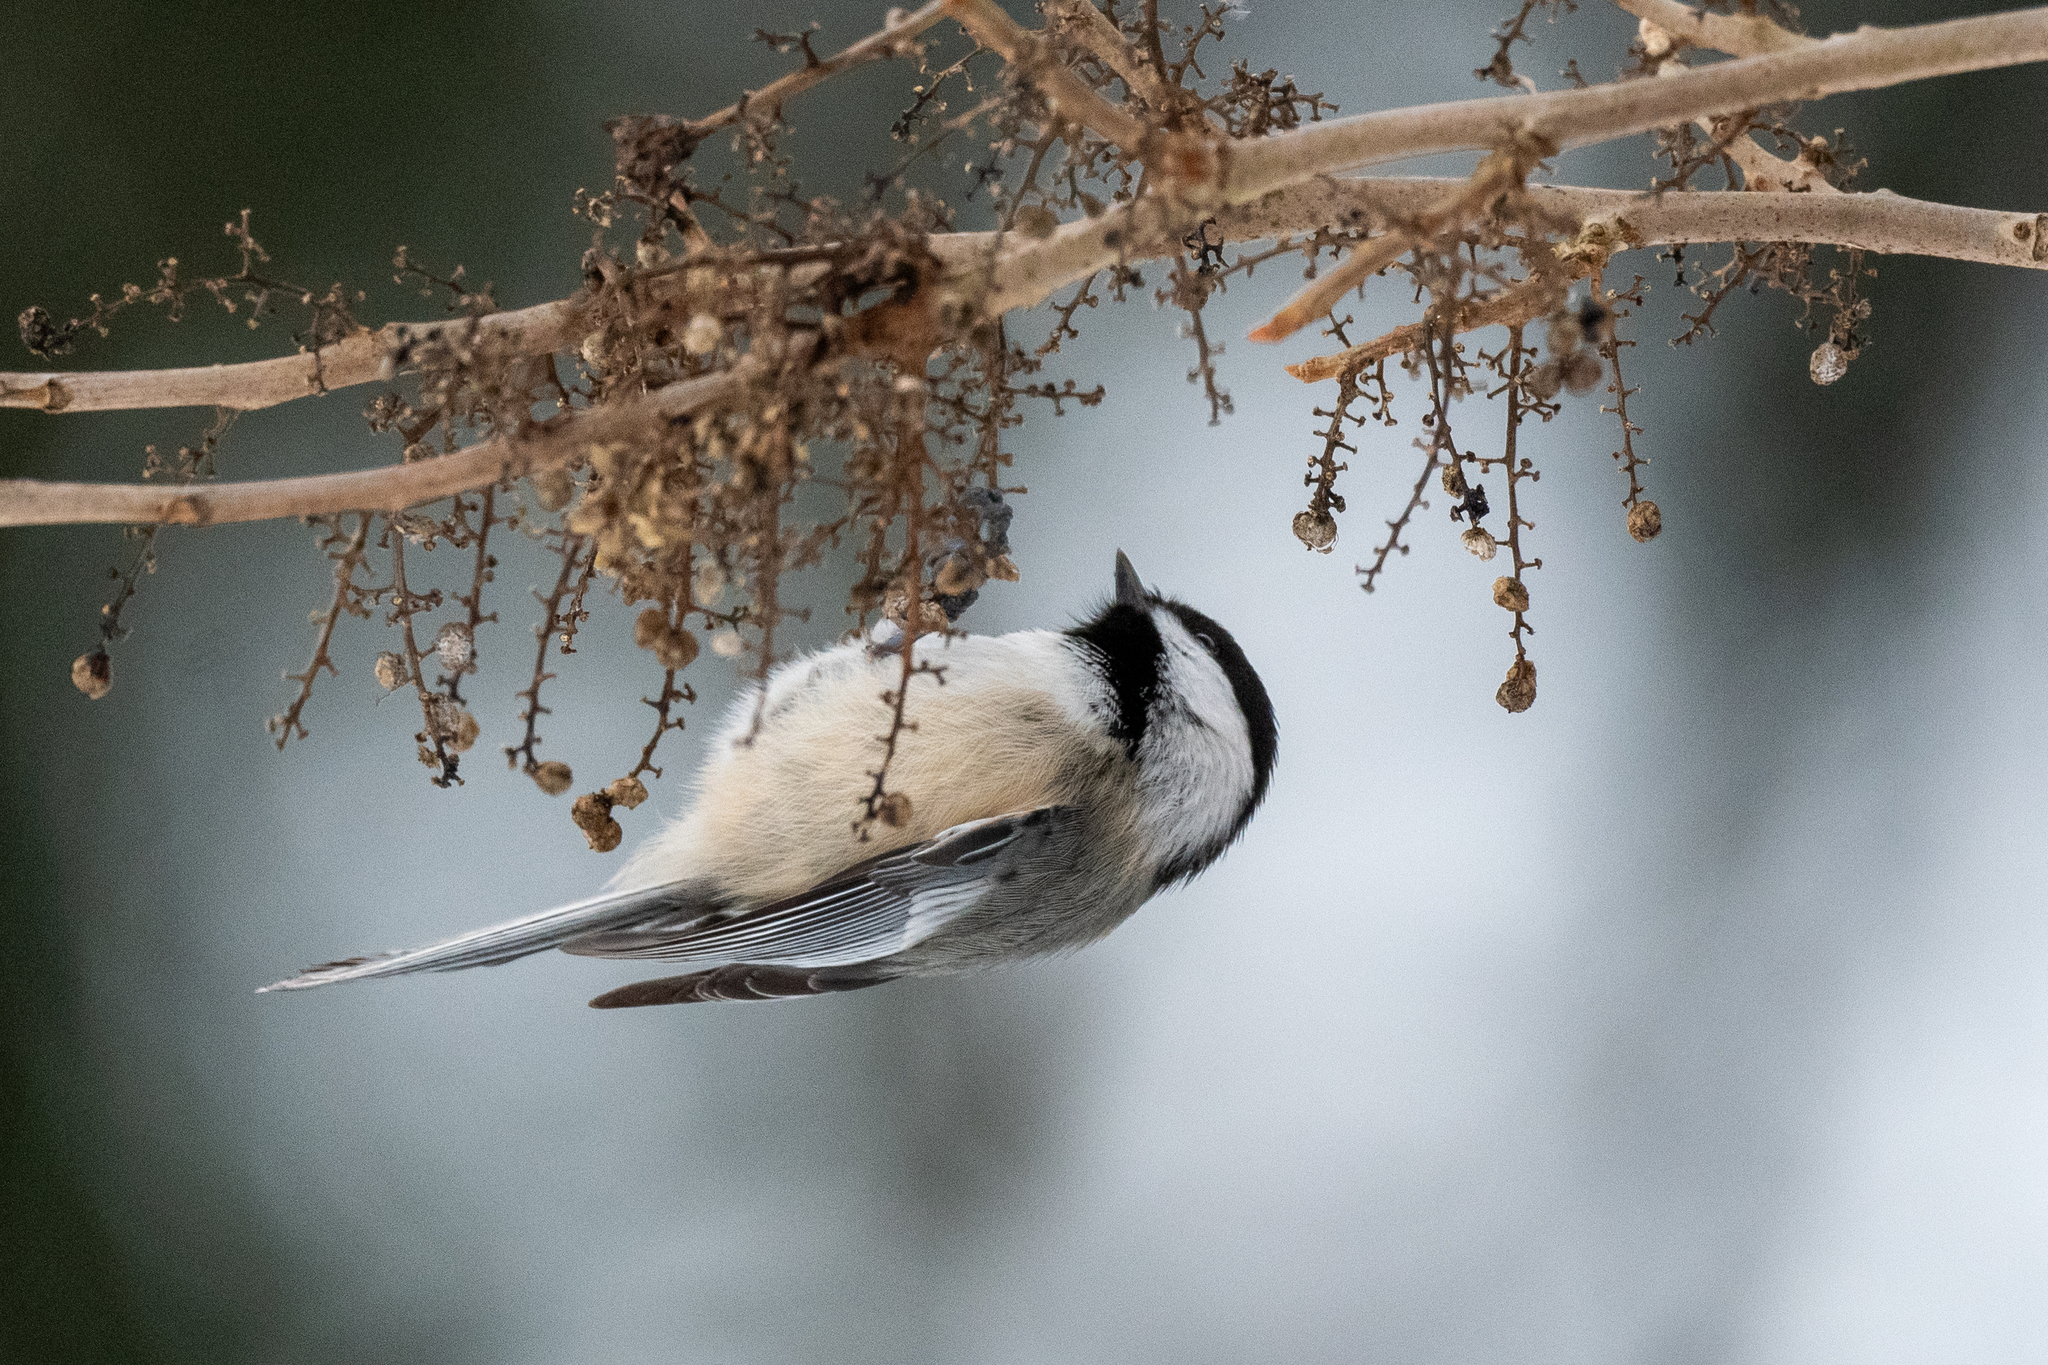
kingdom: Animalia
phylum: Chordata
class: Aves
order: Passeriformes
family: Paridae
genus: Poecile
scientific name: Poecile atricapillus
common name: Black-capped chickadee
